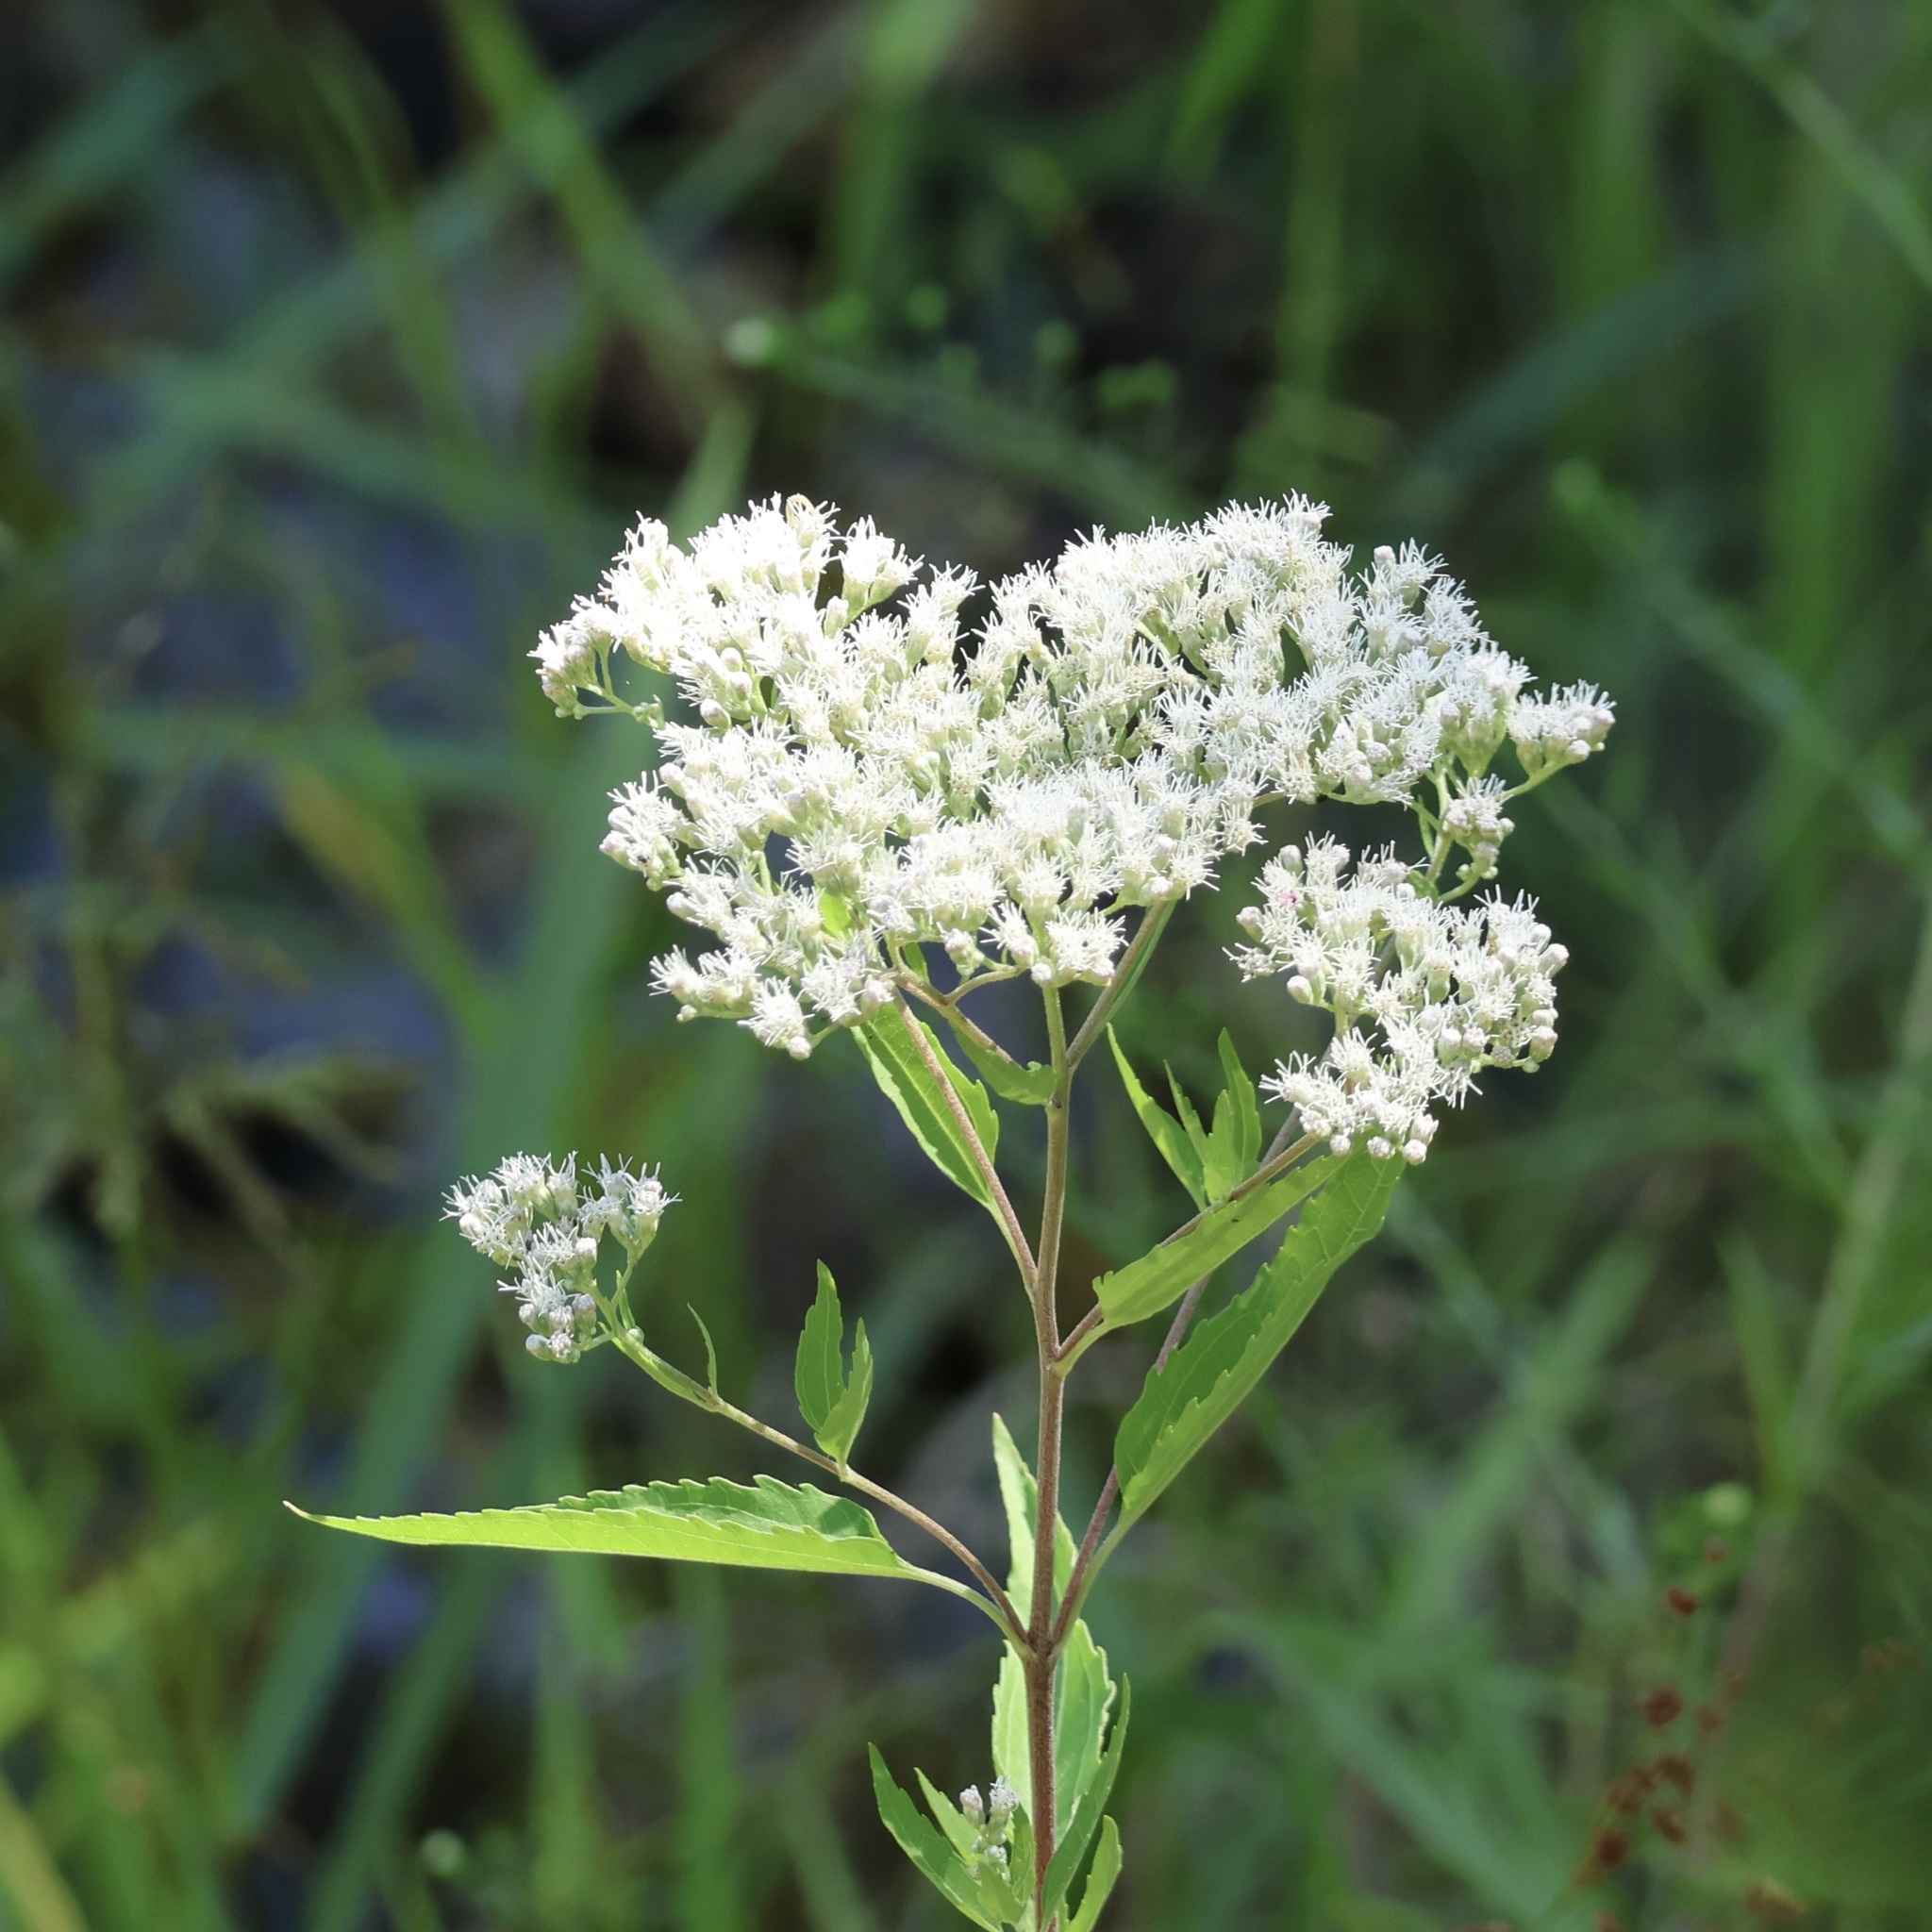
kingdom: Plantae
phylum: Tracheophyta
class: Magnoliopsida
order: Asterales
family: Asteraceae
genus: Eupatorium
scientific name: Eupatorium serotinum
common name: Late boneset
